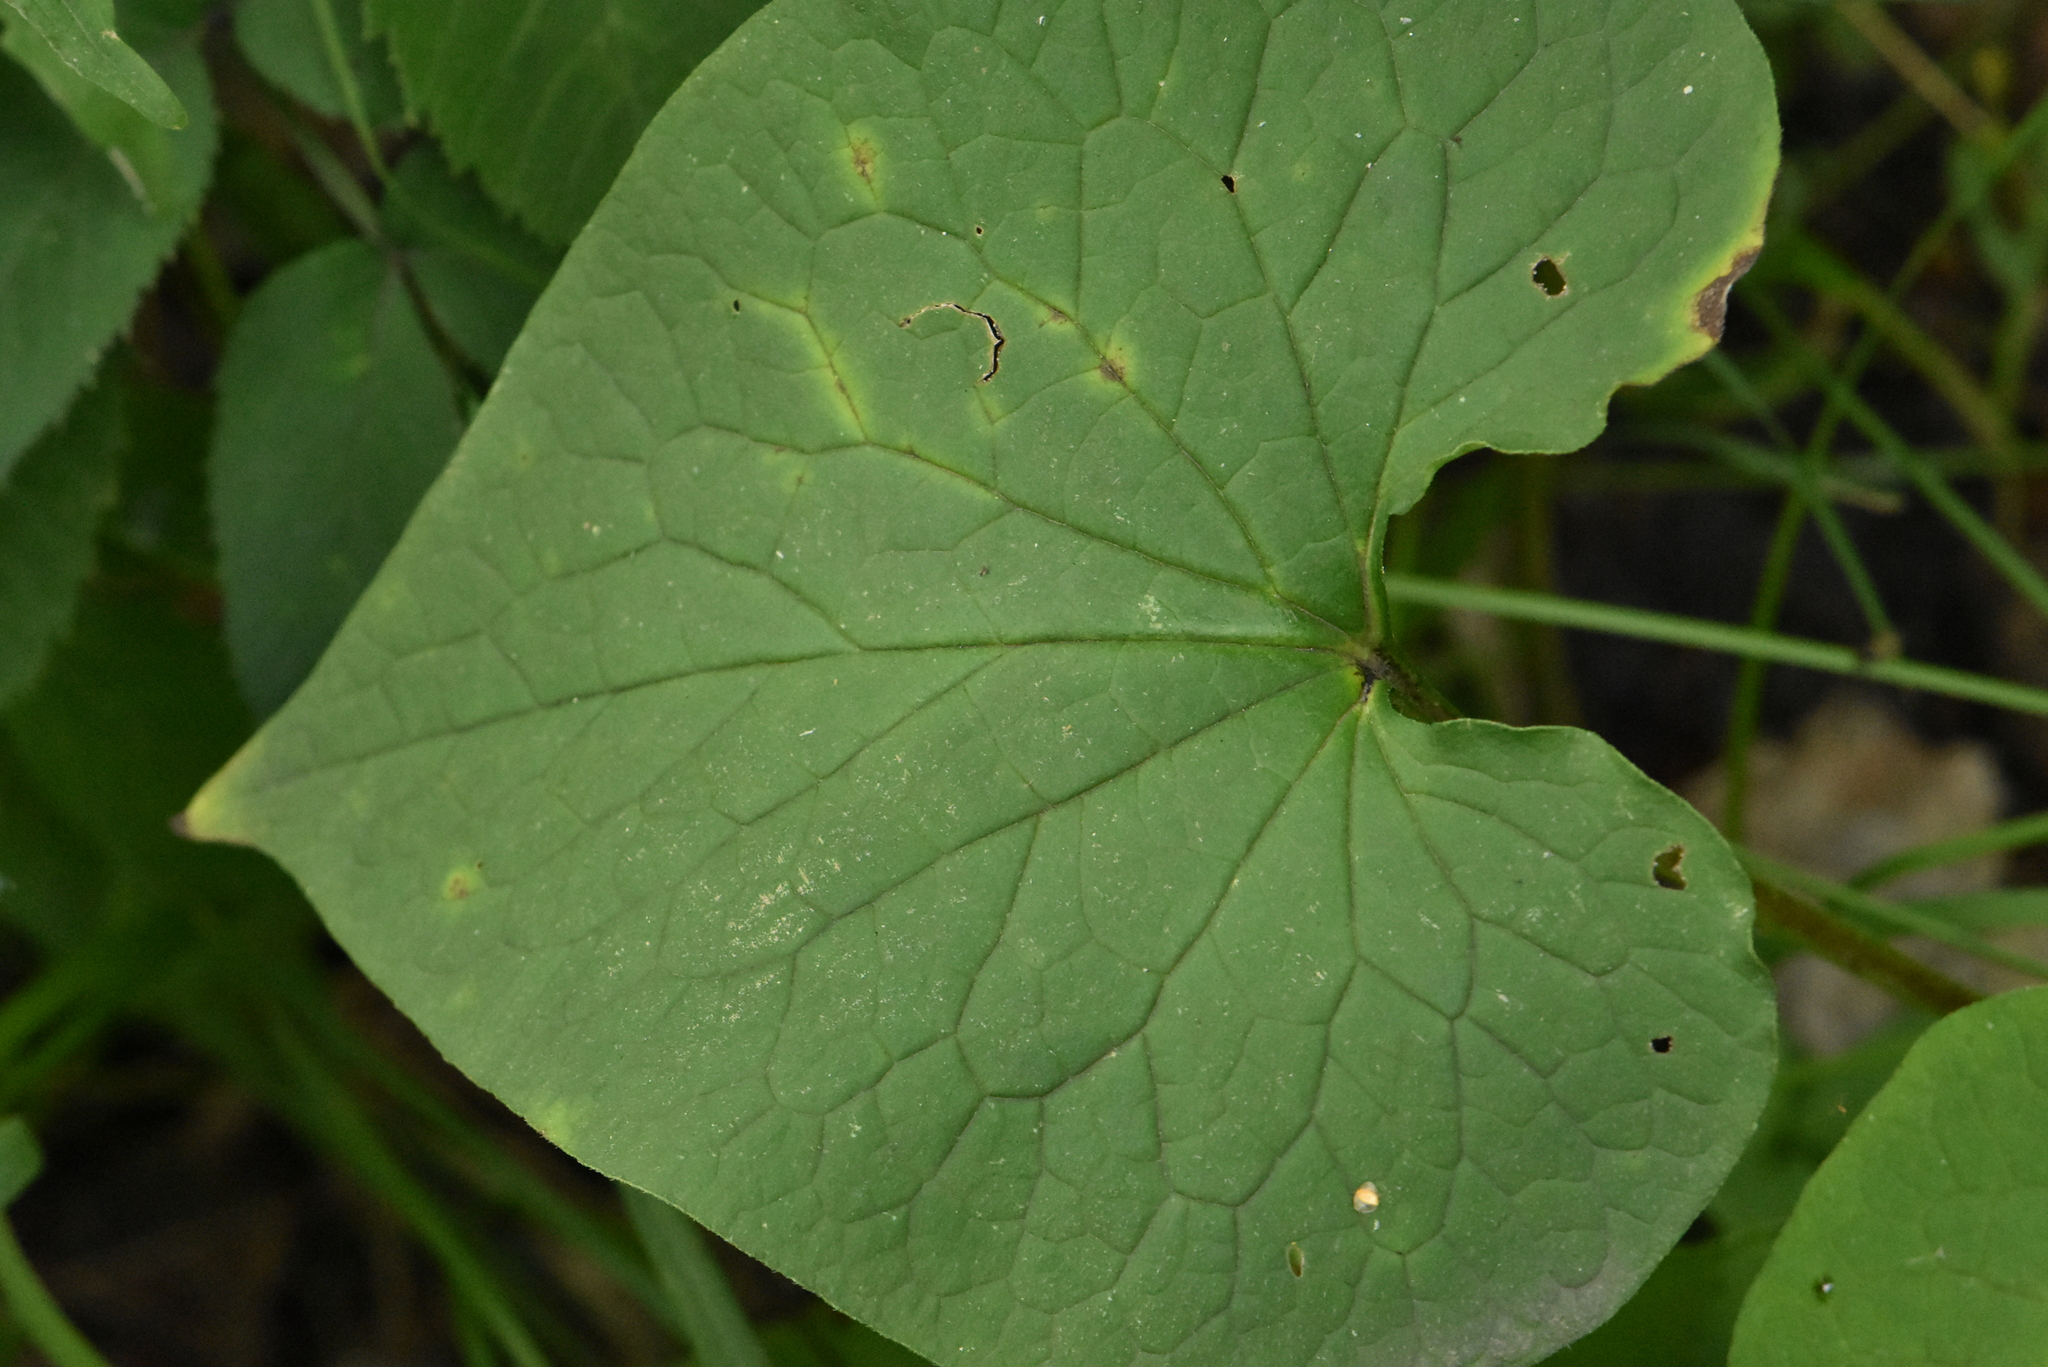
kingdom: Plantae
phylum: Tracheophyta
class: Magnoliopsida
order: Boraginales
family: Boraginaceae
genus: Brunnera
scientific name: Brunnera sibirica
